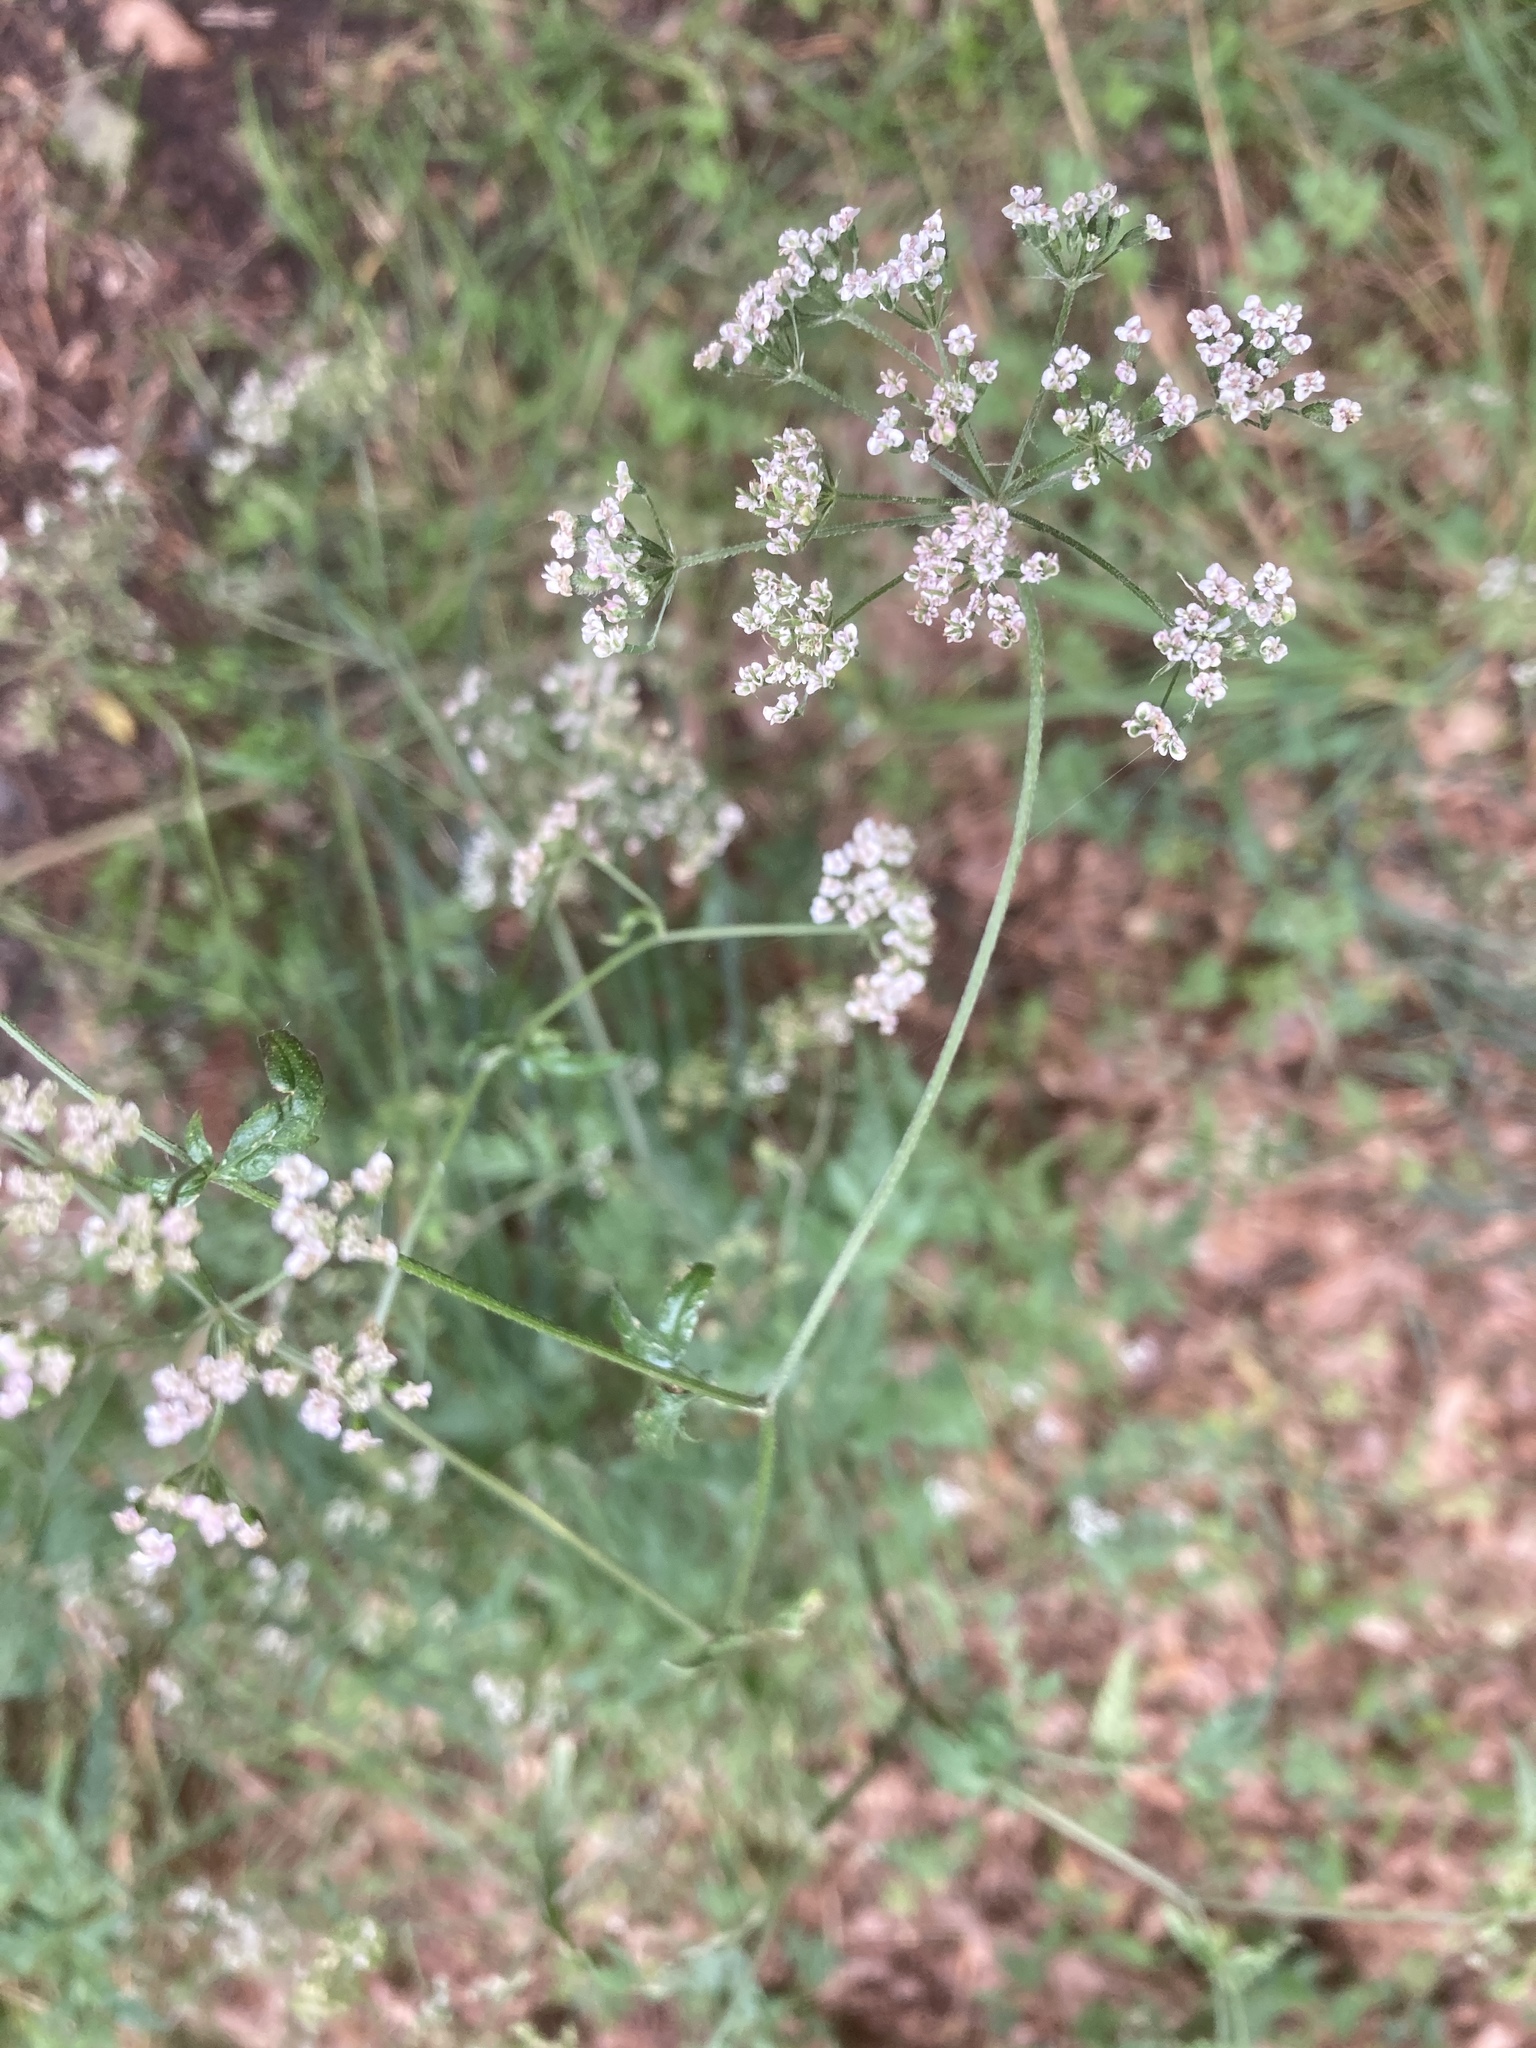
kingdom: Plantae
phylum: Tracheophyta
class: Magnoliopsida
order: Apiales
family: Apiaceae
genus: Torilis
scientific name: Torilis japonica
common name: Upright hedge-parsley
